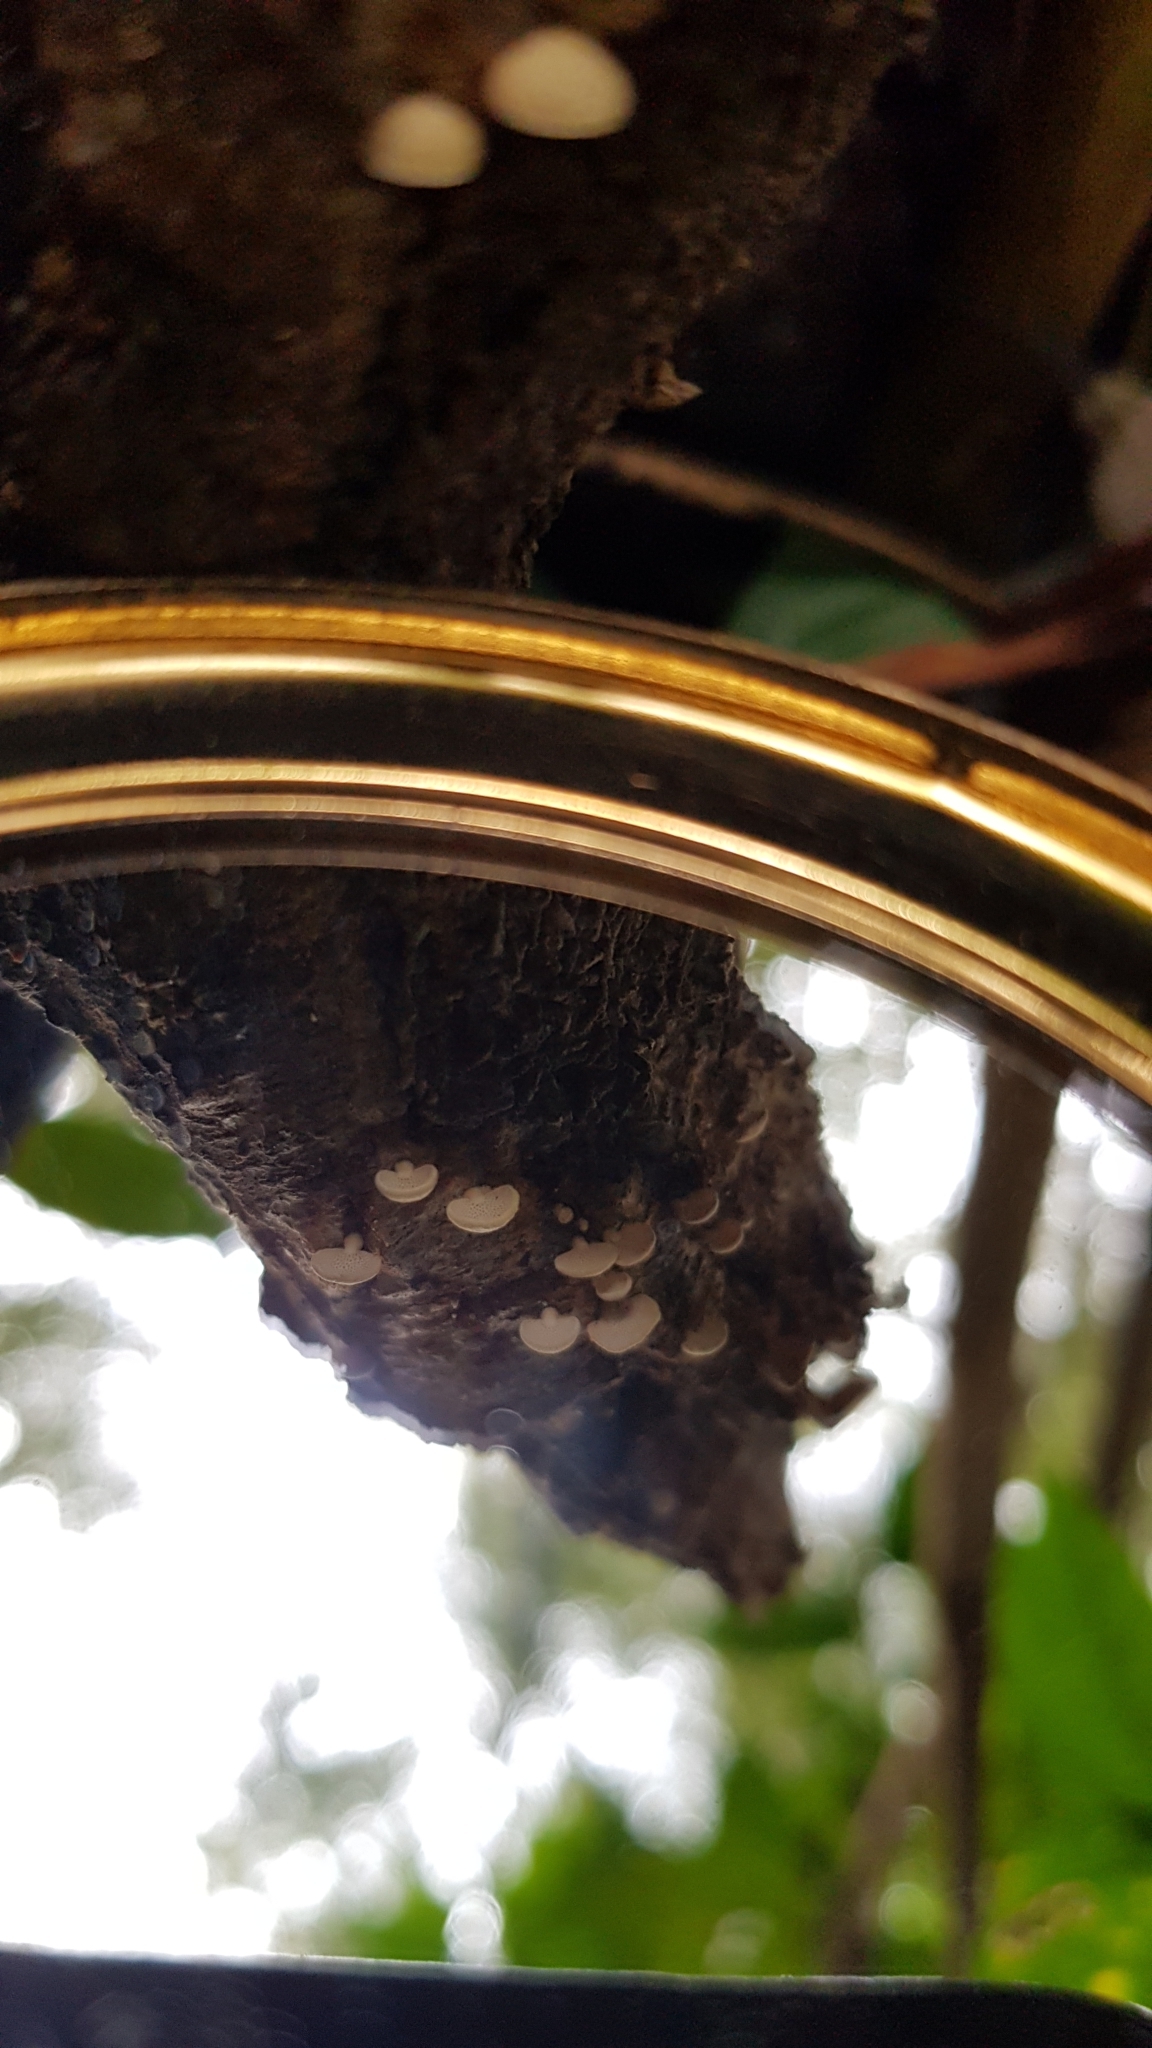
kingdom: Fungi
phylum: Basidiomycota
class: Agaricomycetes
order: Agaricales
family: Mycenaceae
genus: Panellus
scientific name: Panellus luxfilamentus
